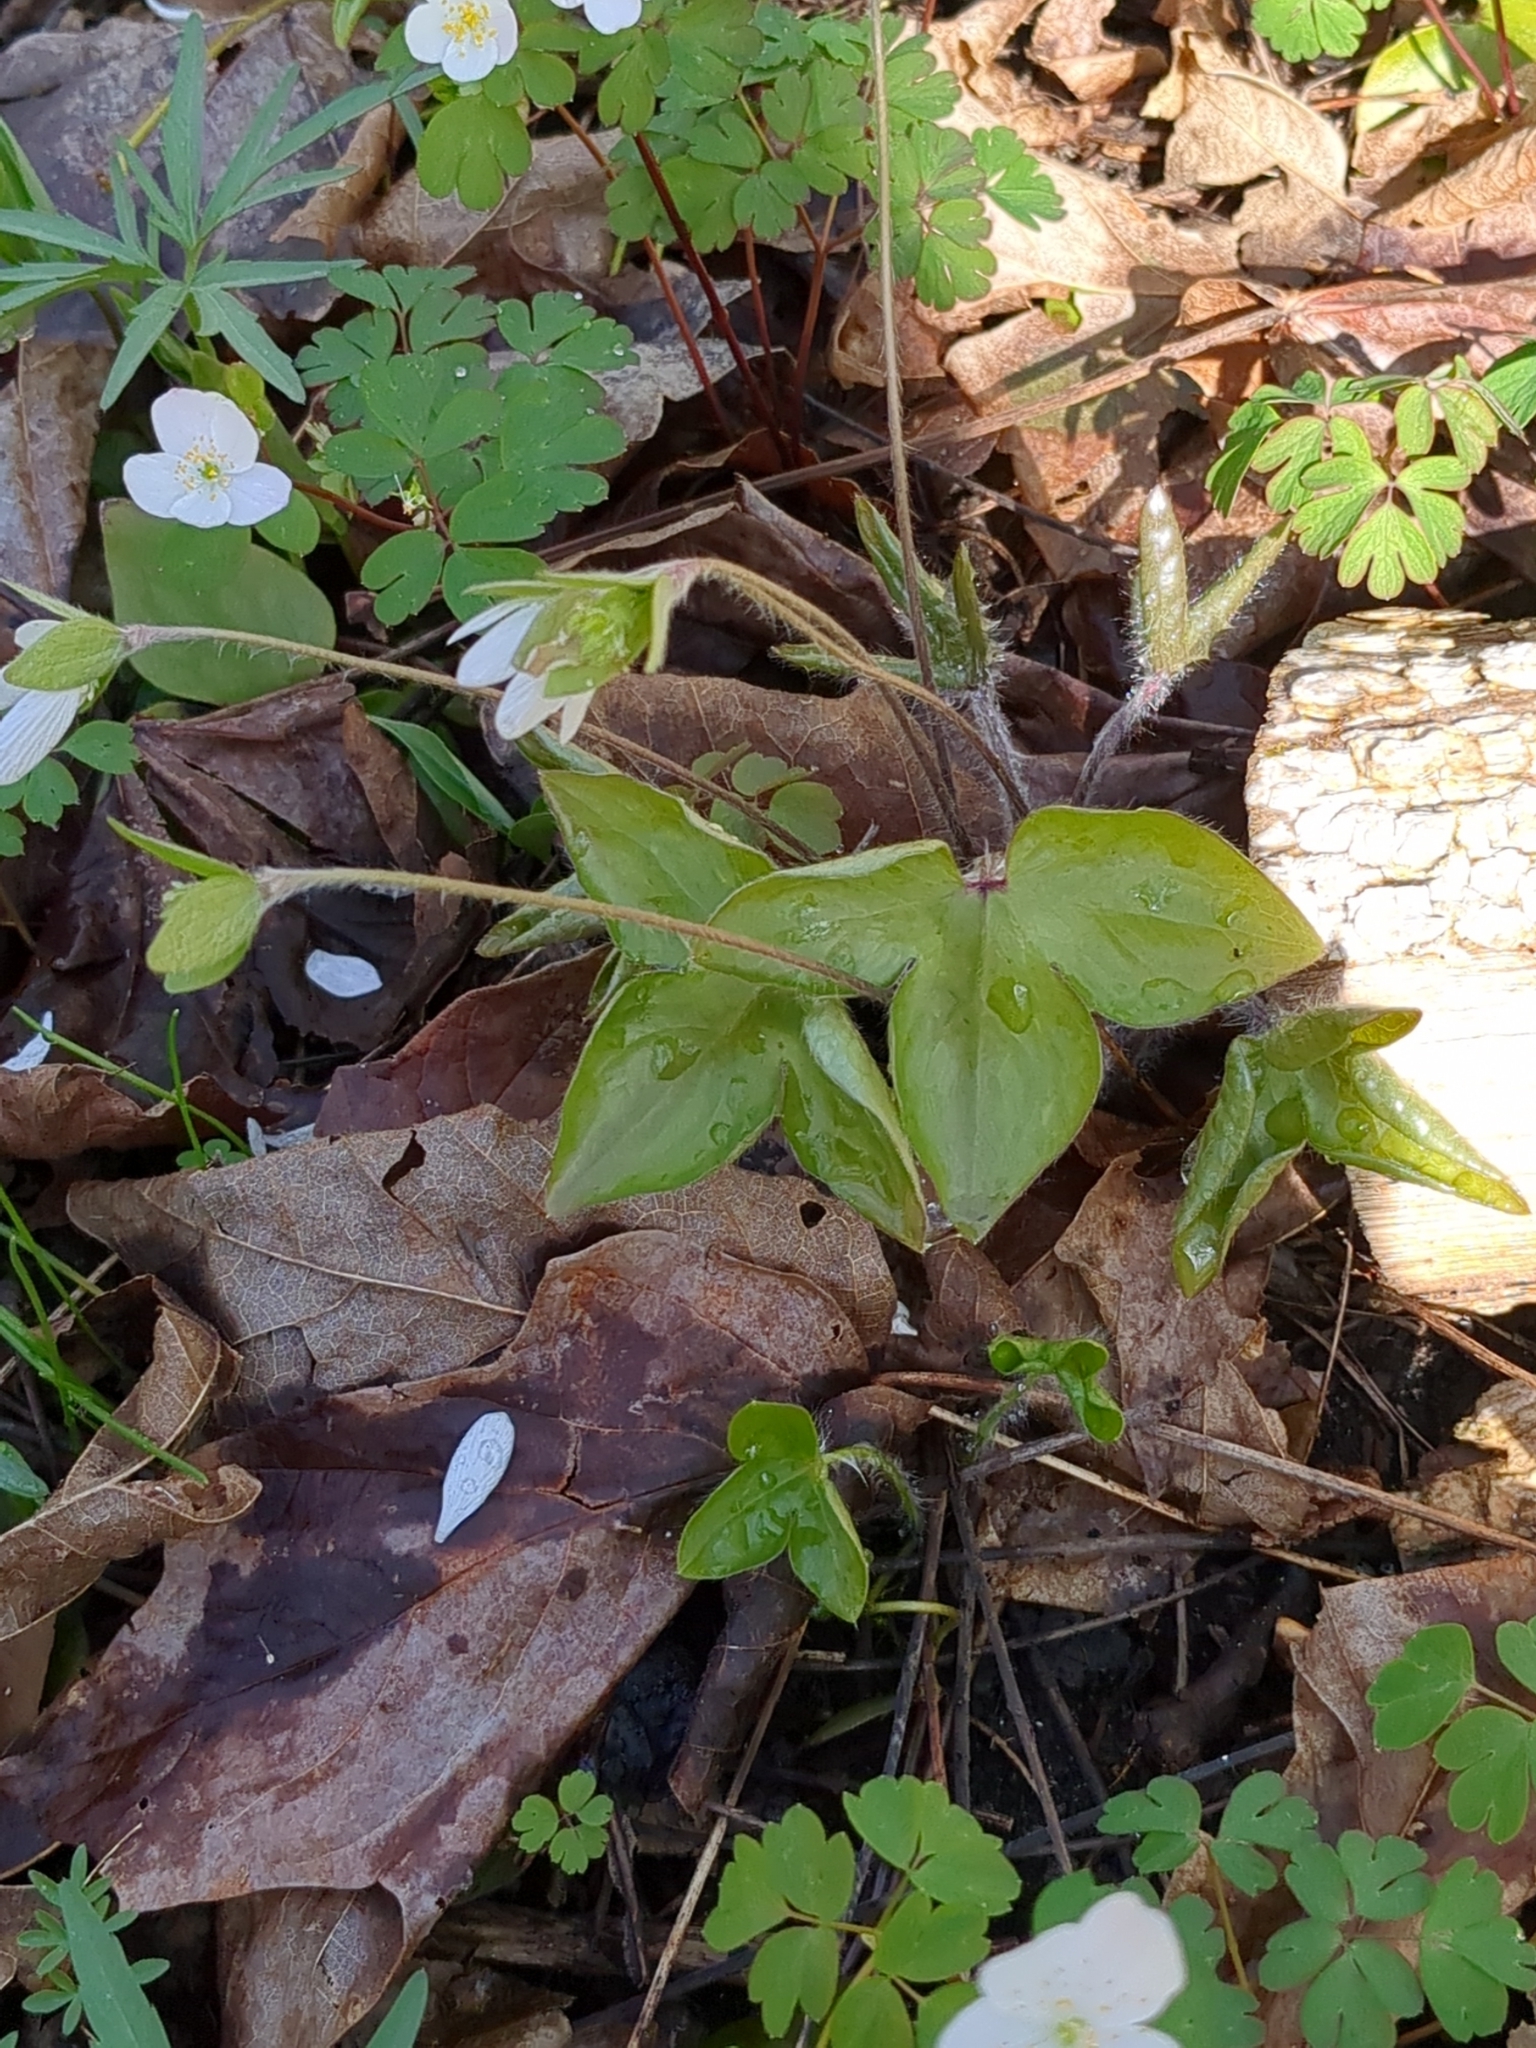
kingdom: Plantae
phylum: Tracheophyta
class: Magnoliopsida
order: Ranunculales
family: Ranunculaceae
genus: Hepatica
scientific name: Hepatica acutiloba
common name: Sharp-lobed hepatica
